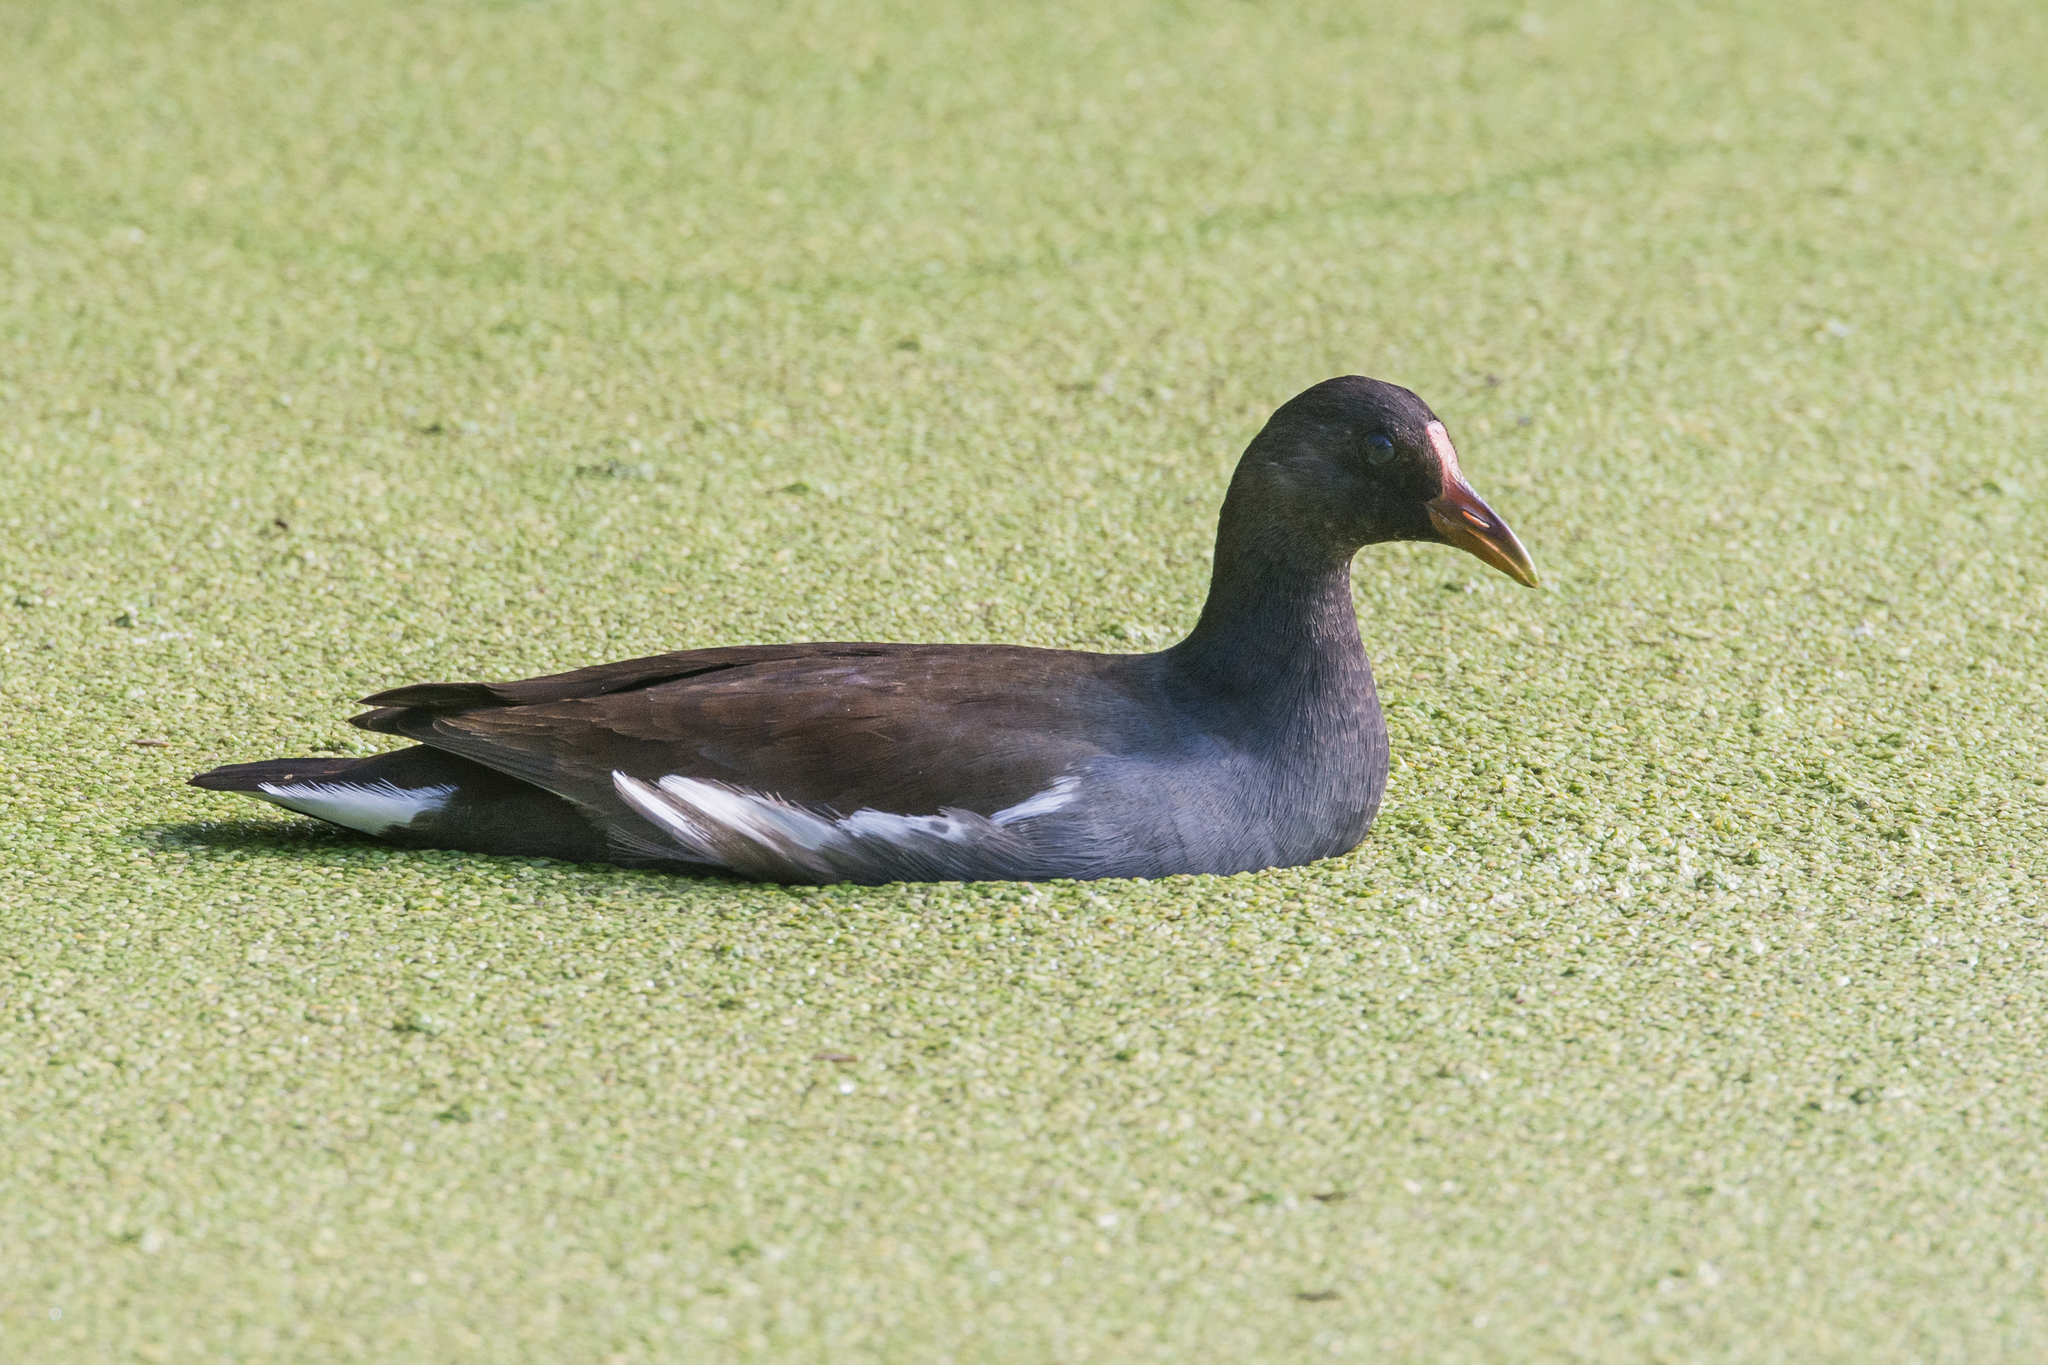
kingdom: Animalia
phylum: Chordata
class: Aves
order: Gruiformes
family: Rallidae
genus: Gallinula
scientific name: Gallinula chloropus
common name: Common moorhen
